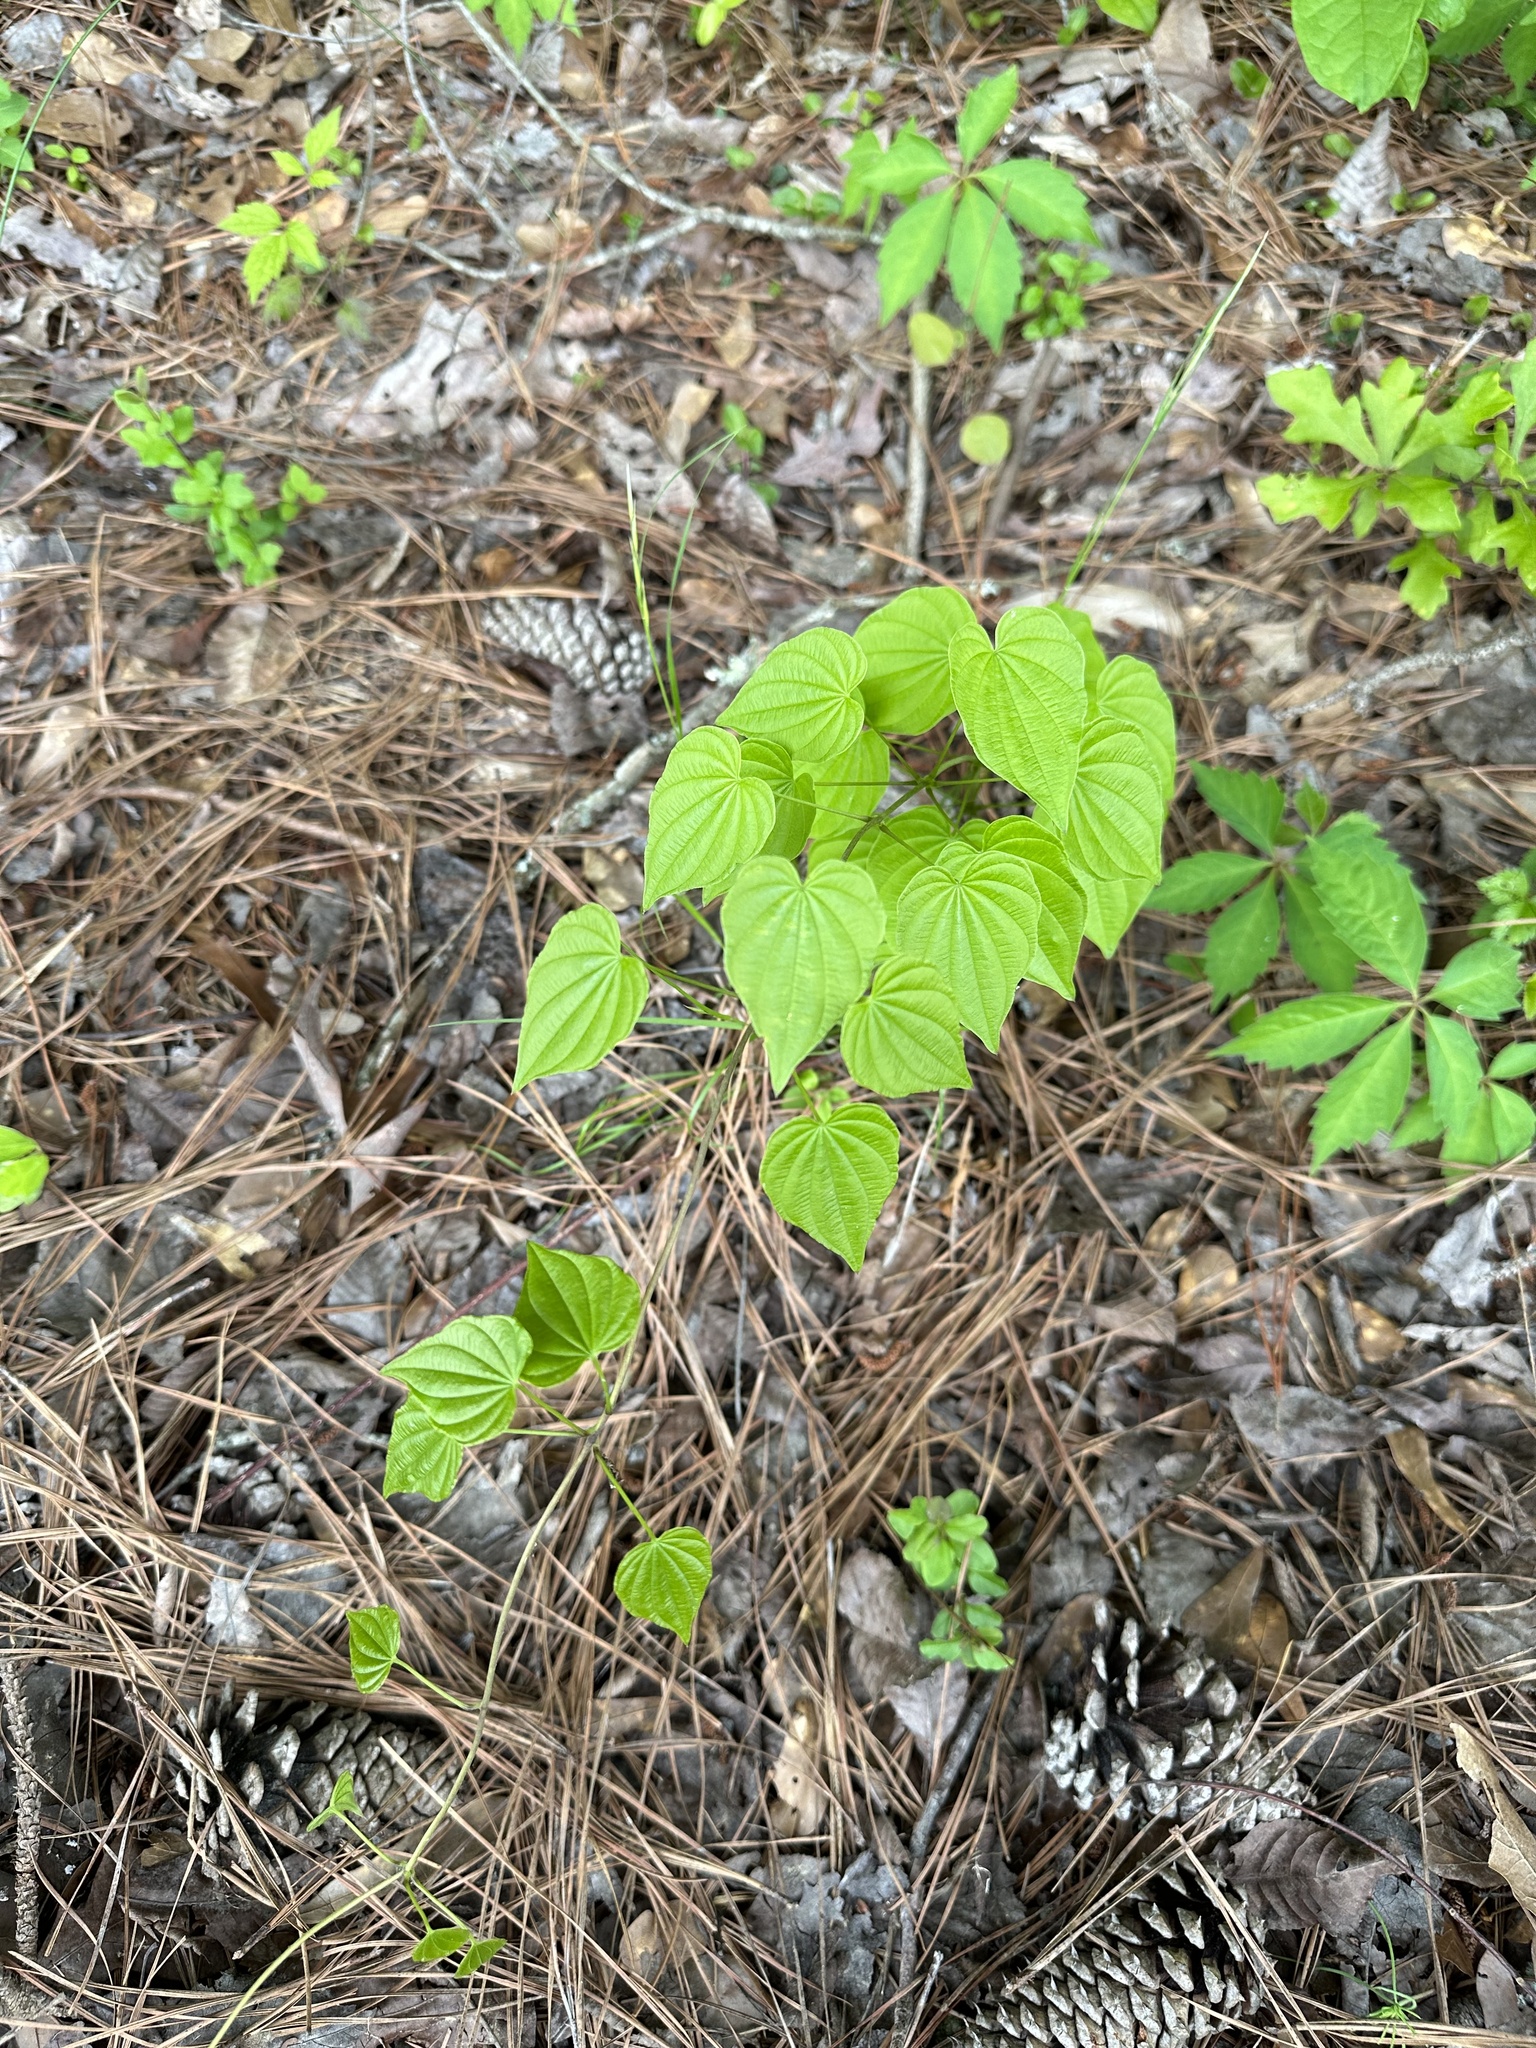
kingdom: Plantae
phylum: Tracheophyta
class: Liliopsida
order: Dioscoreales
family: Dioscoreaceae
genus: Dioscorea
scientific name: Dioscorea villosa
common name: Wild yam
